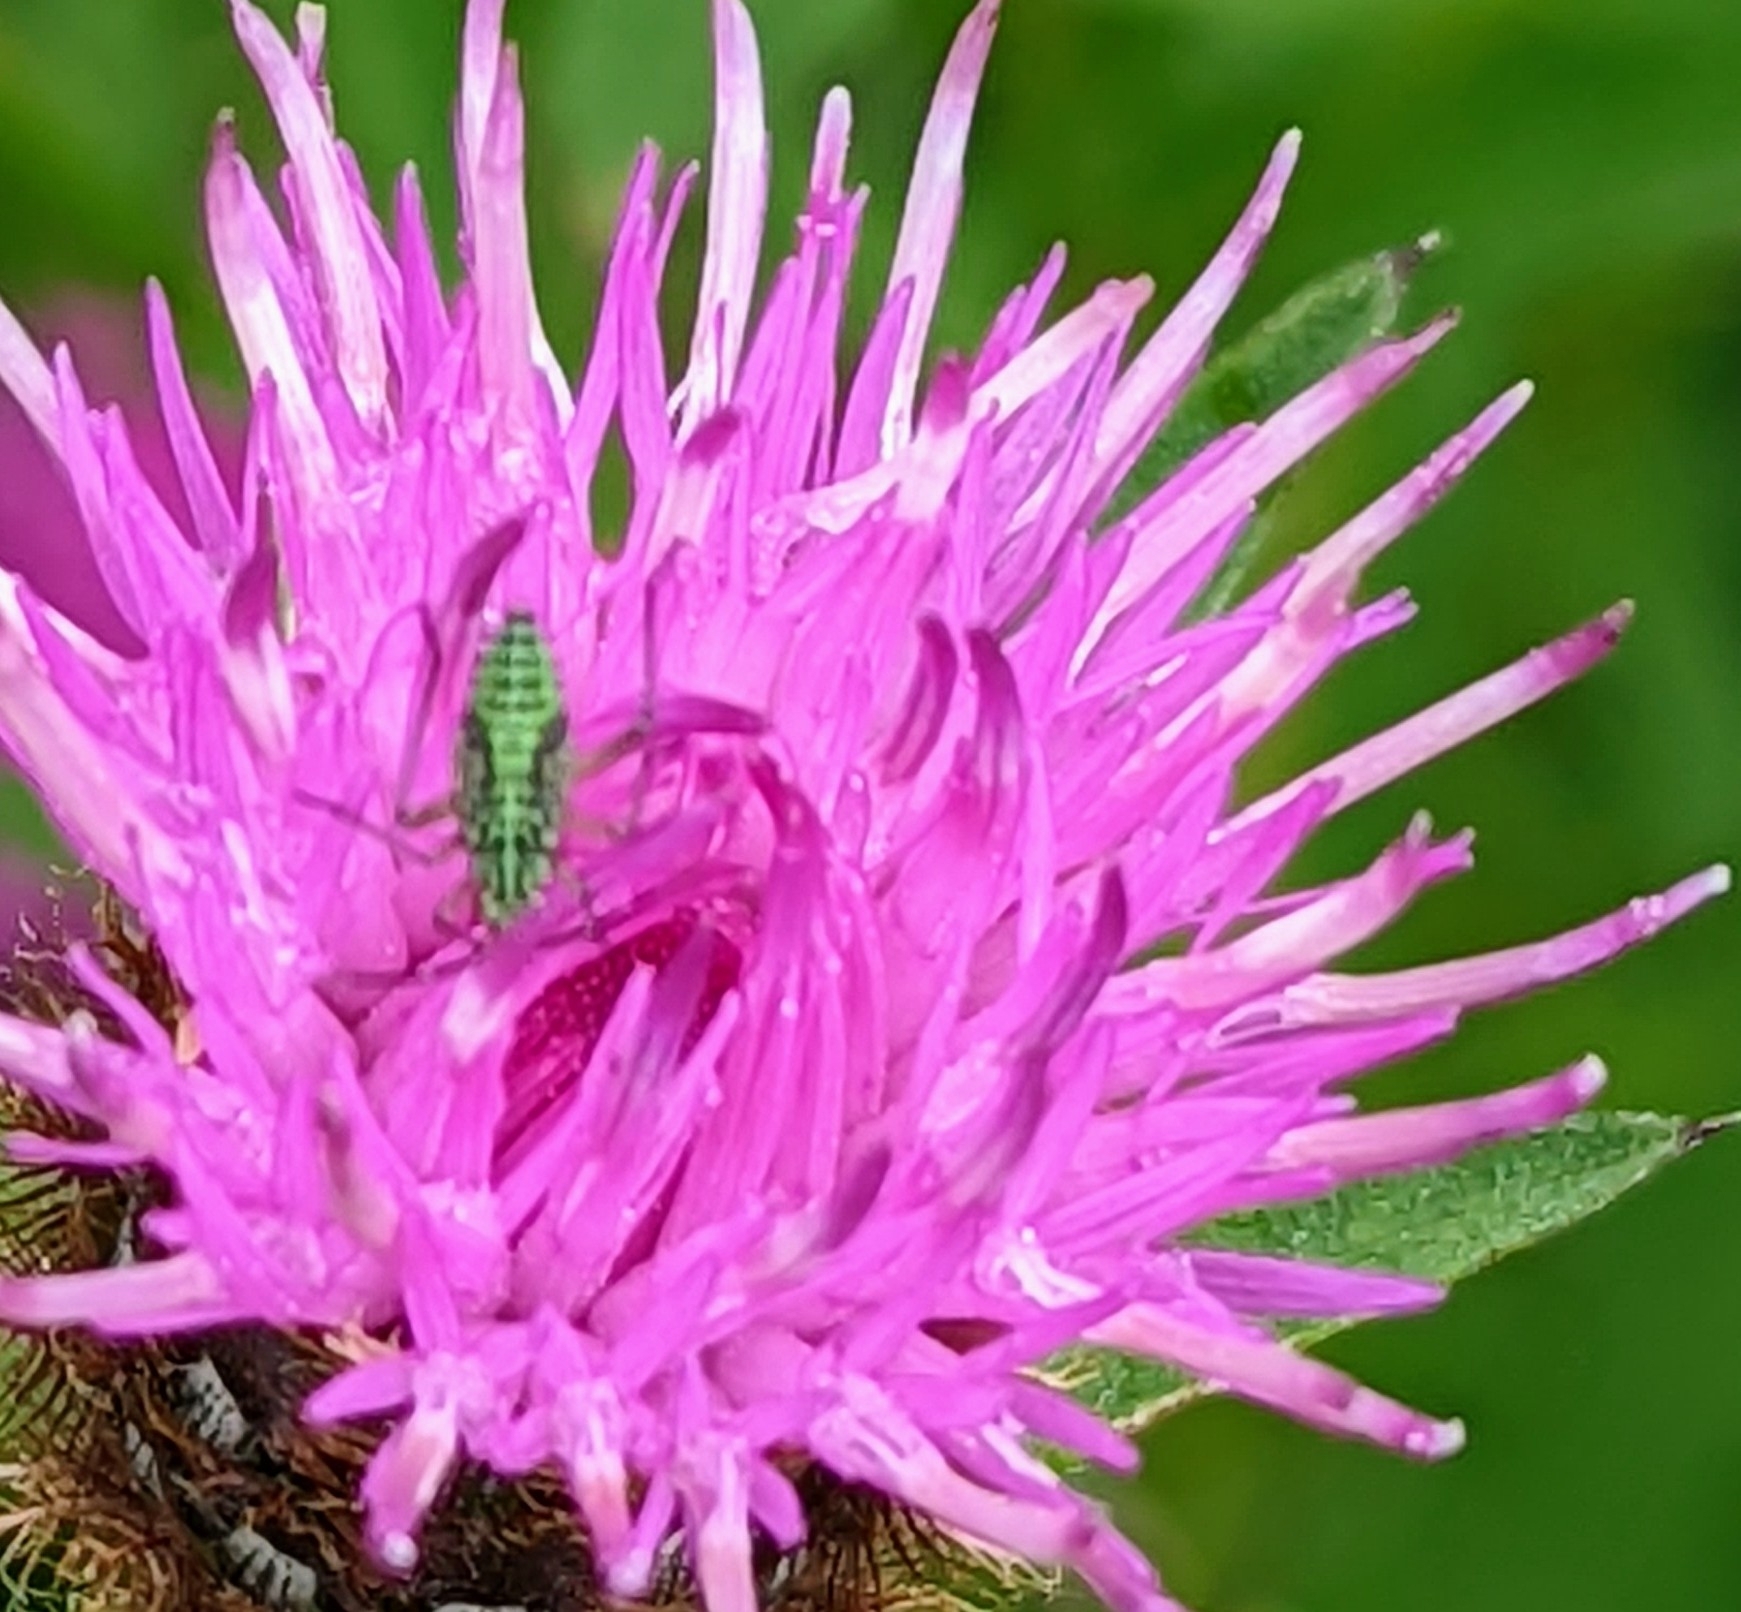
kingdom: Animalia
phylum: Arthropoda
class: Insecta
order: Hemiptera
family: Miridae
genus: Oncotylus
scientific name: Oncotylus viridiflavus
